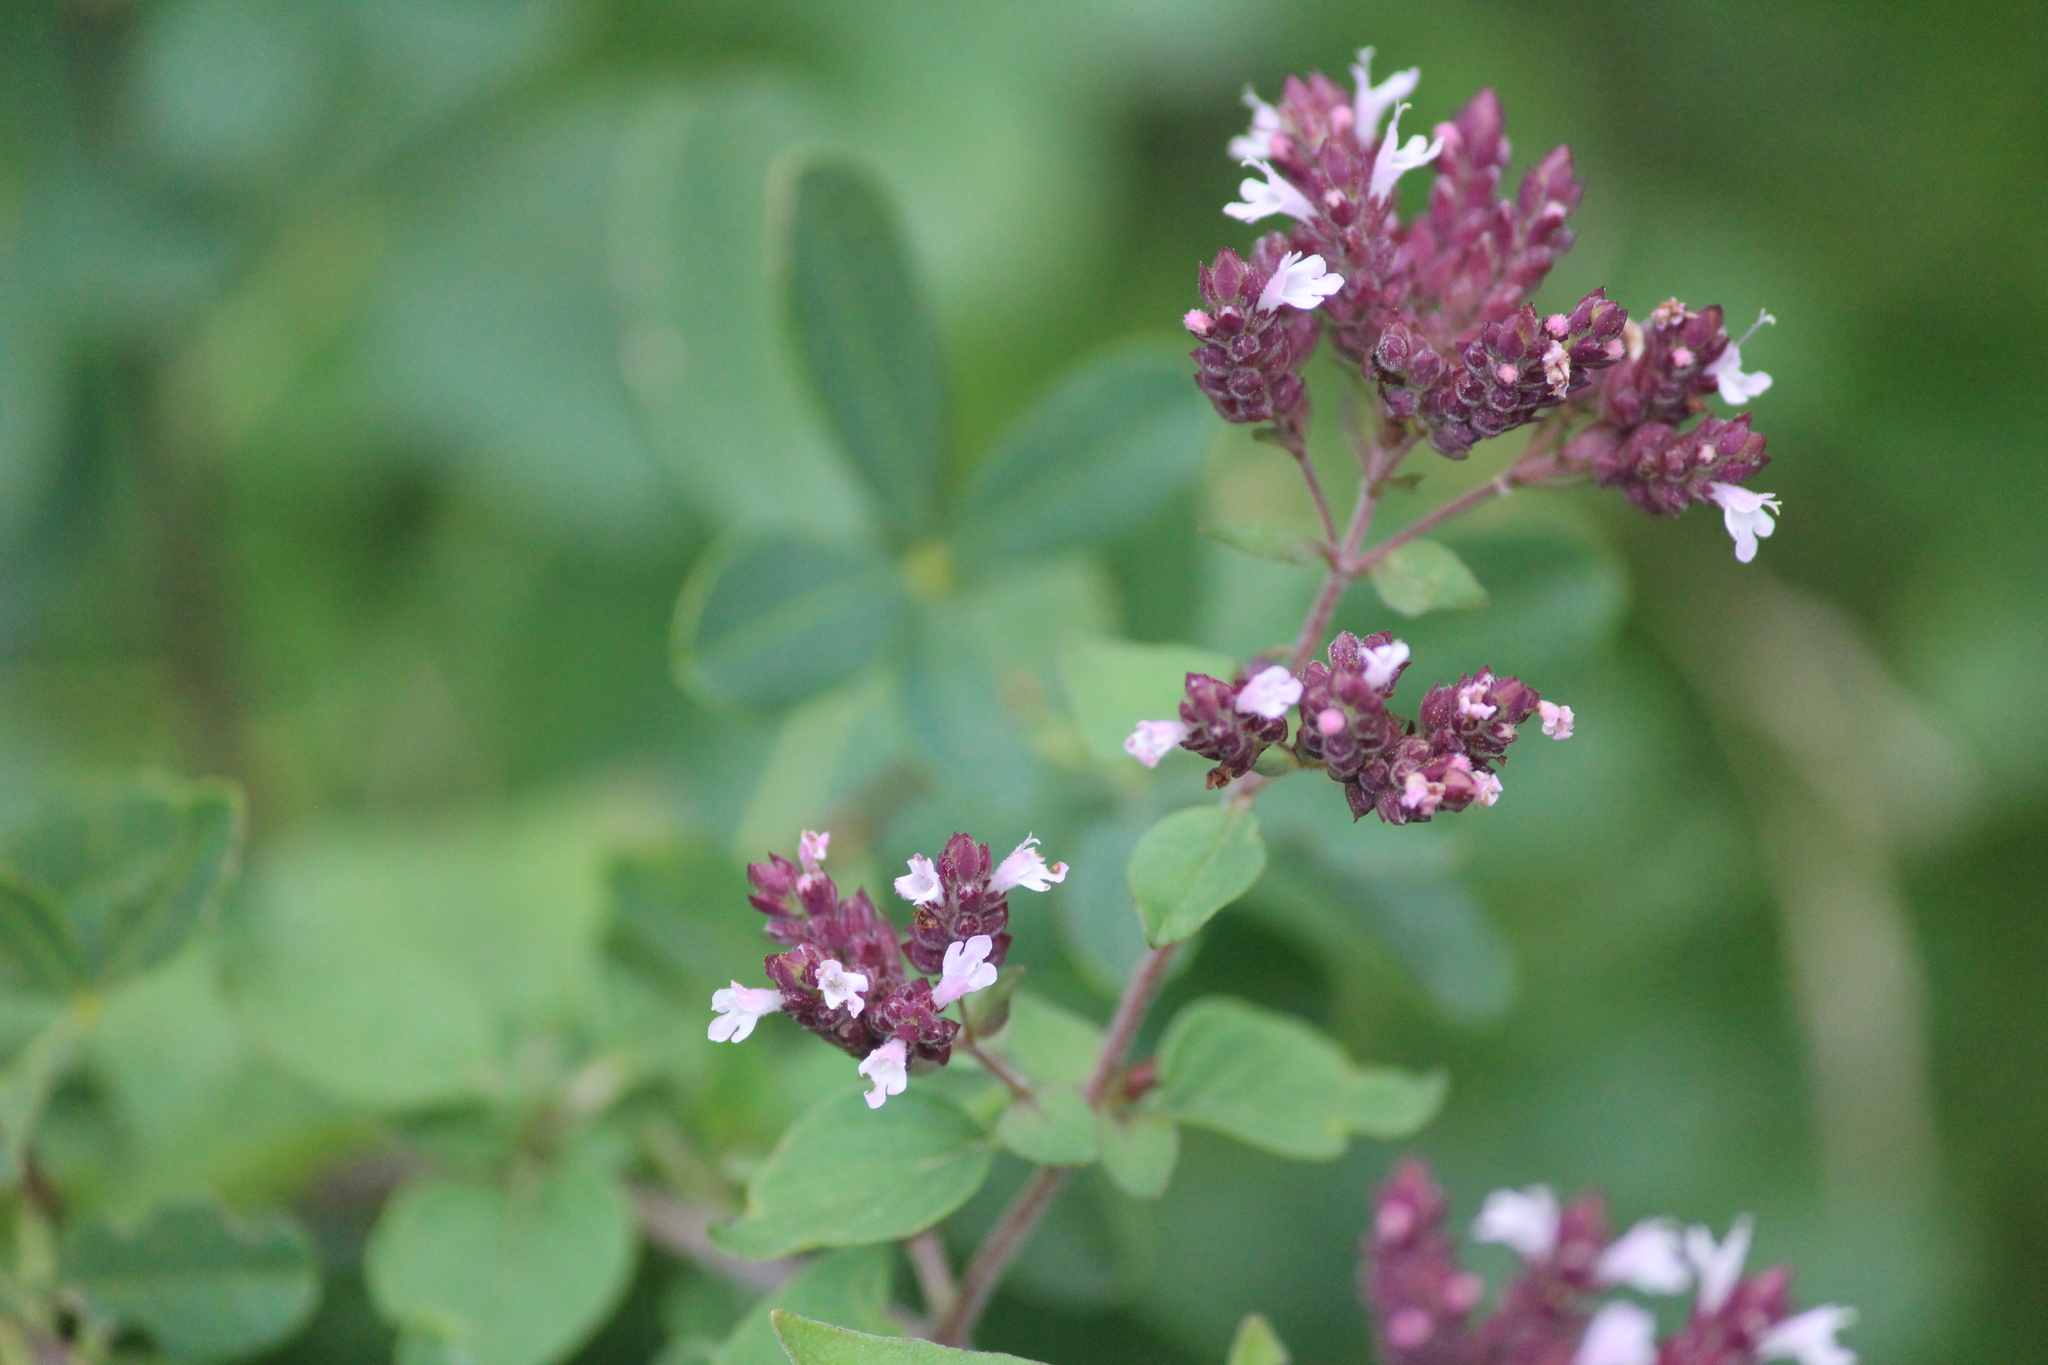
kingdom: Plantae
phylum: Tracheophyta
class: Magnoliopsida
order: Lamiales
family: Lamiaceae
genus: Origanum
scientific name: Origanum vulgare
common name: Wild marjoram
